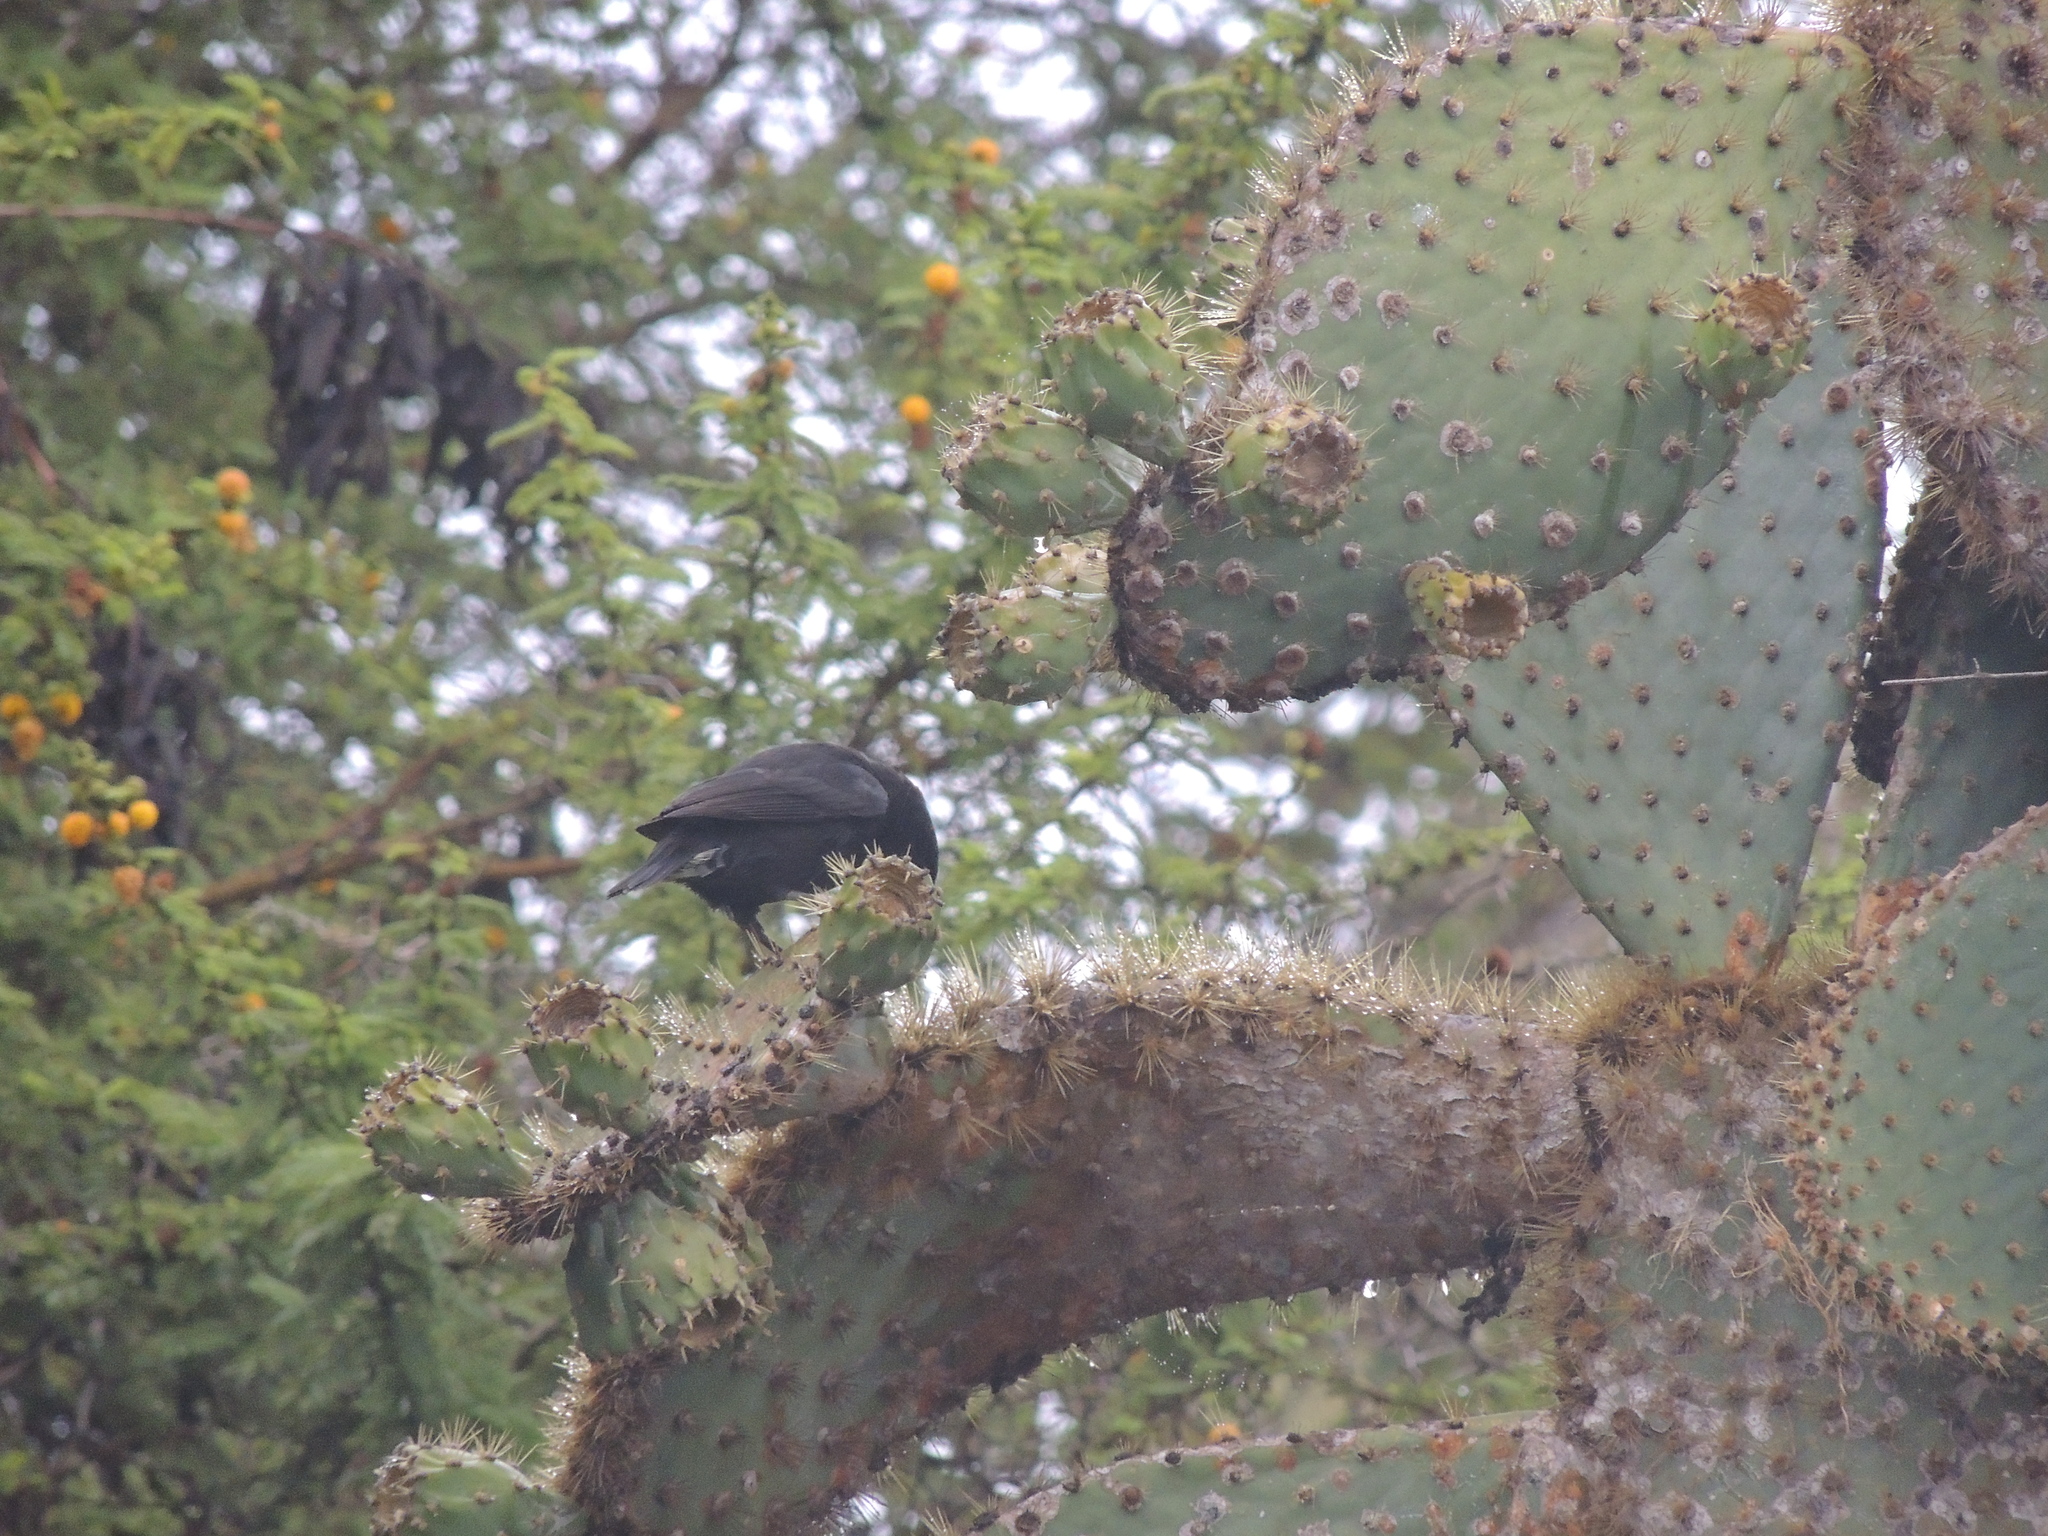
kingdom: Animalia
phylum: Chordata
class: Aves
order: Passeriformes
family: Thraupidae
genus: Geospiza
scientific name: Geospiza fortis
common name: Medium ground finch
